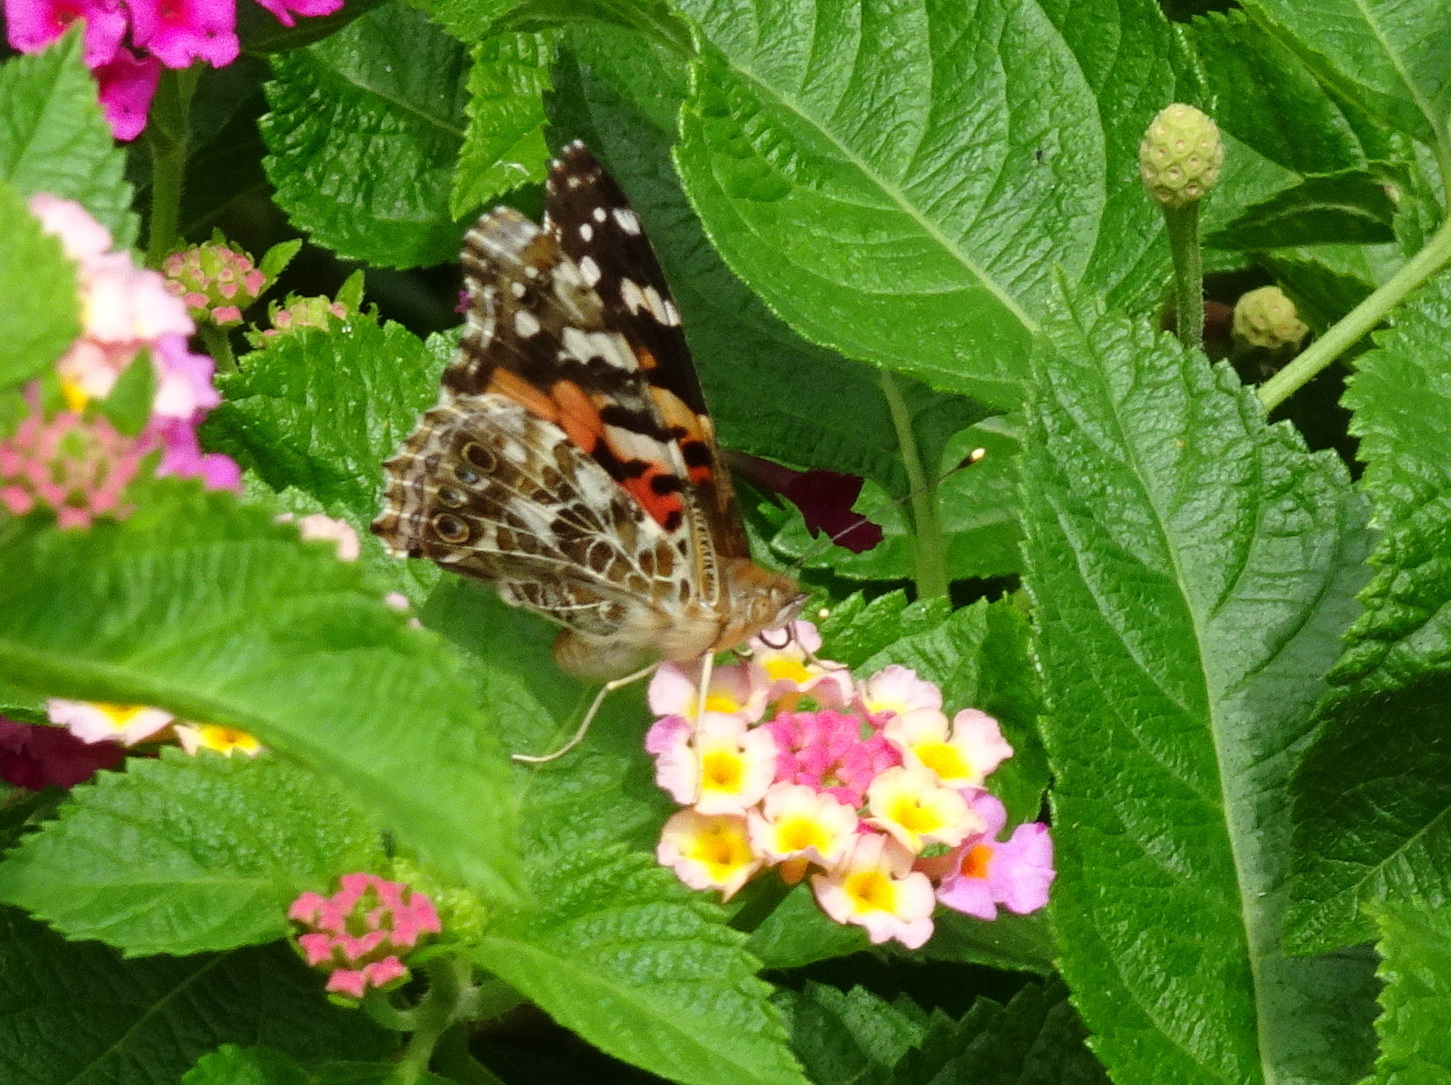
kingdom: Animalia
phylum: Arthropoda
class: Insecta
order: Lepidoptera
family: Nymphalidae
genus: Vanessa
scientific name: Vanessa cardui
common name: Painted lady
